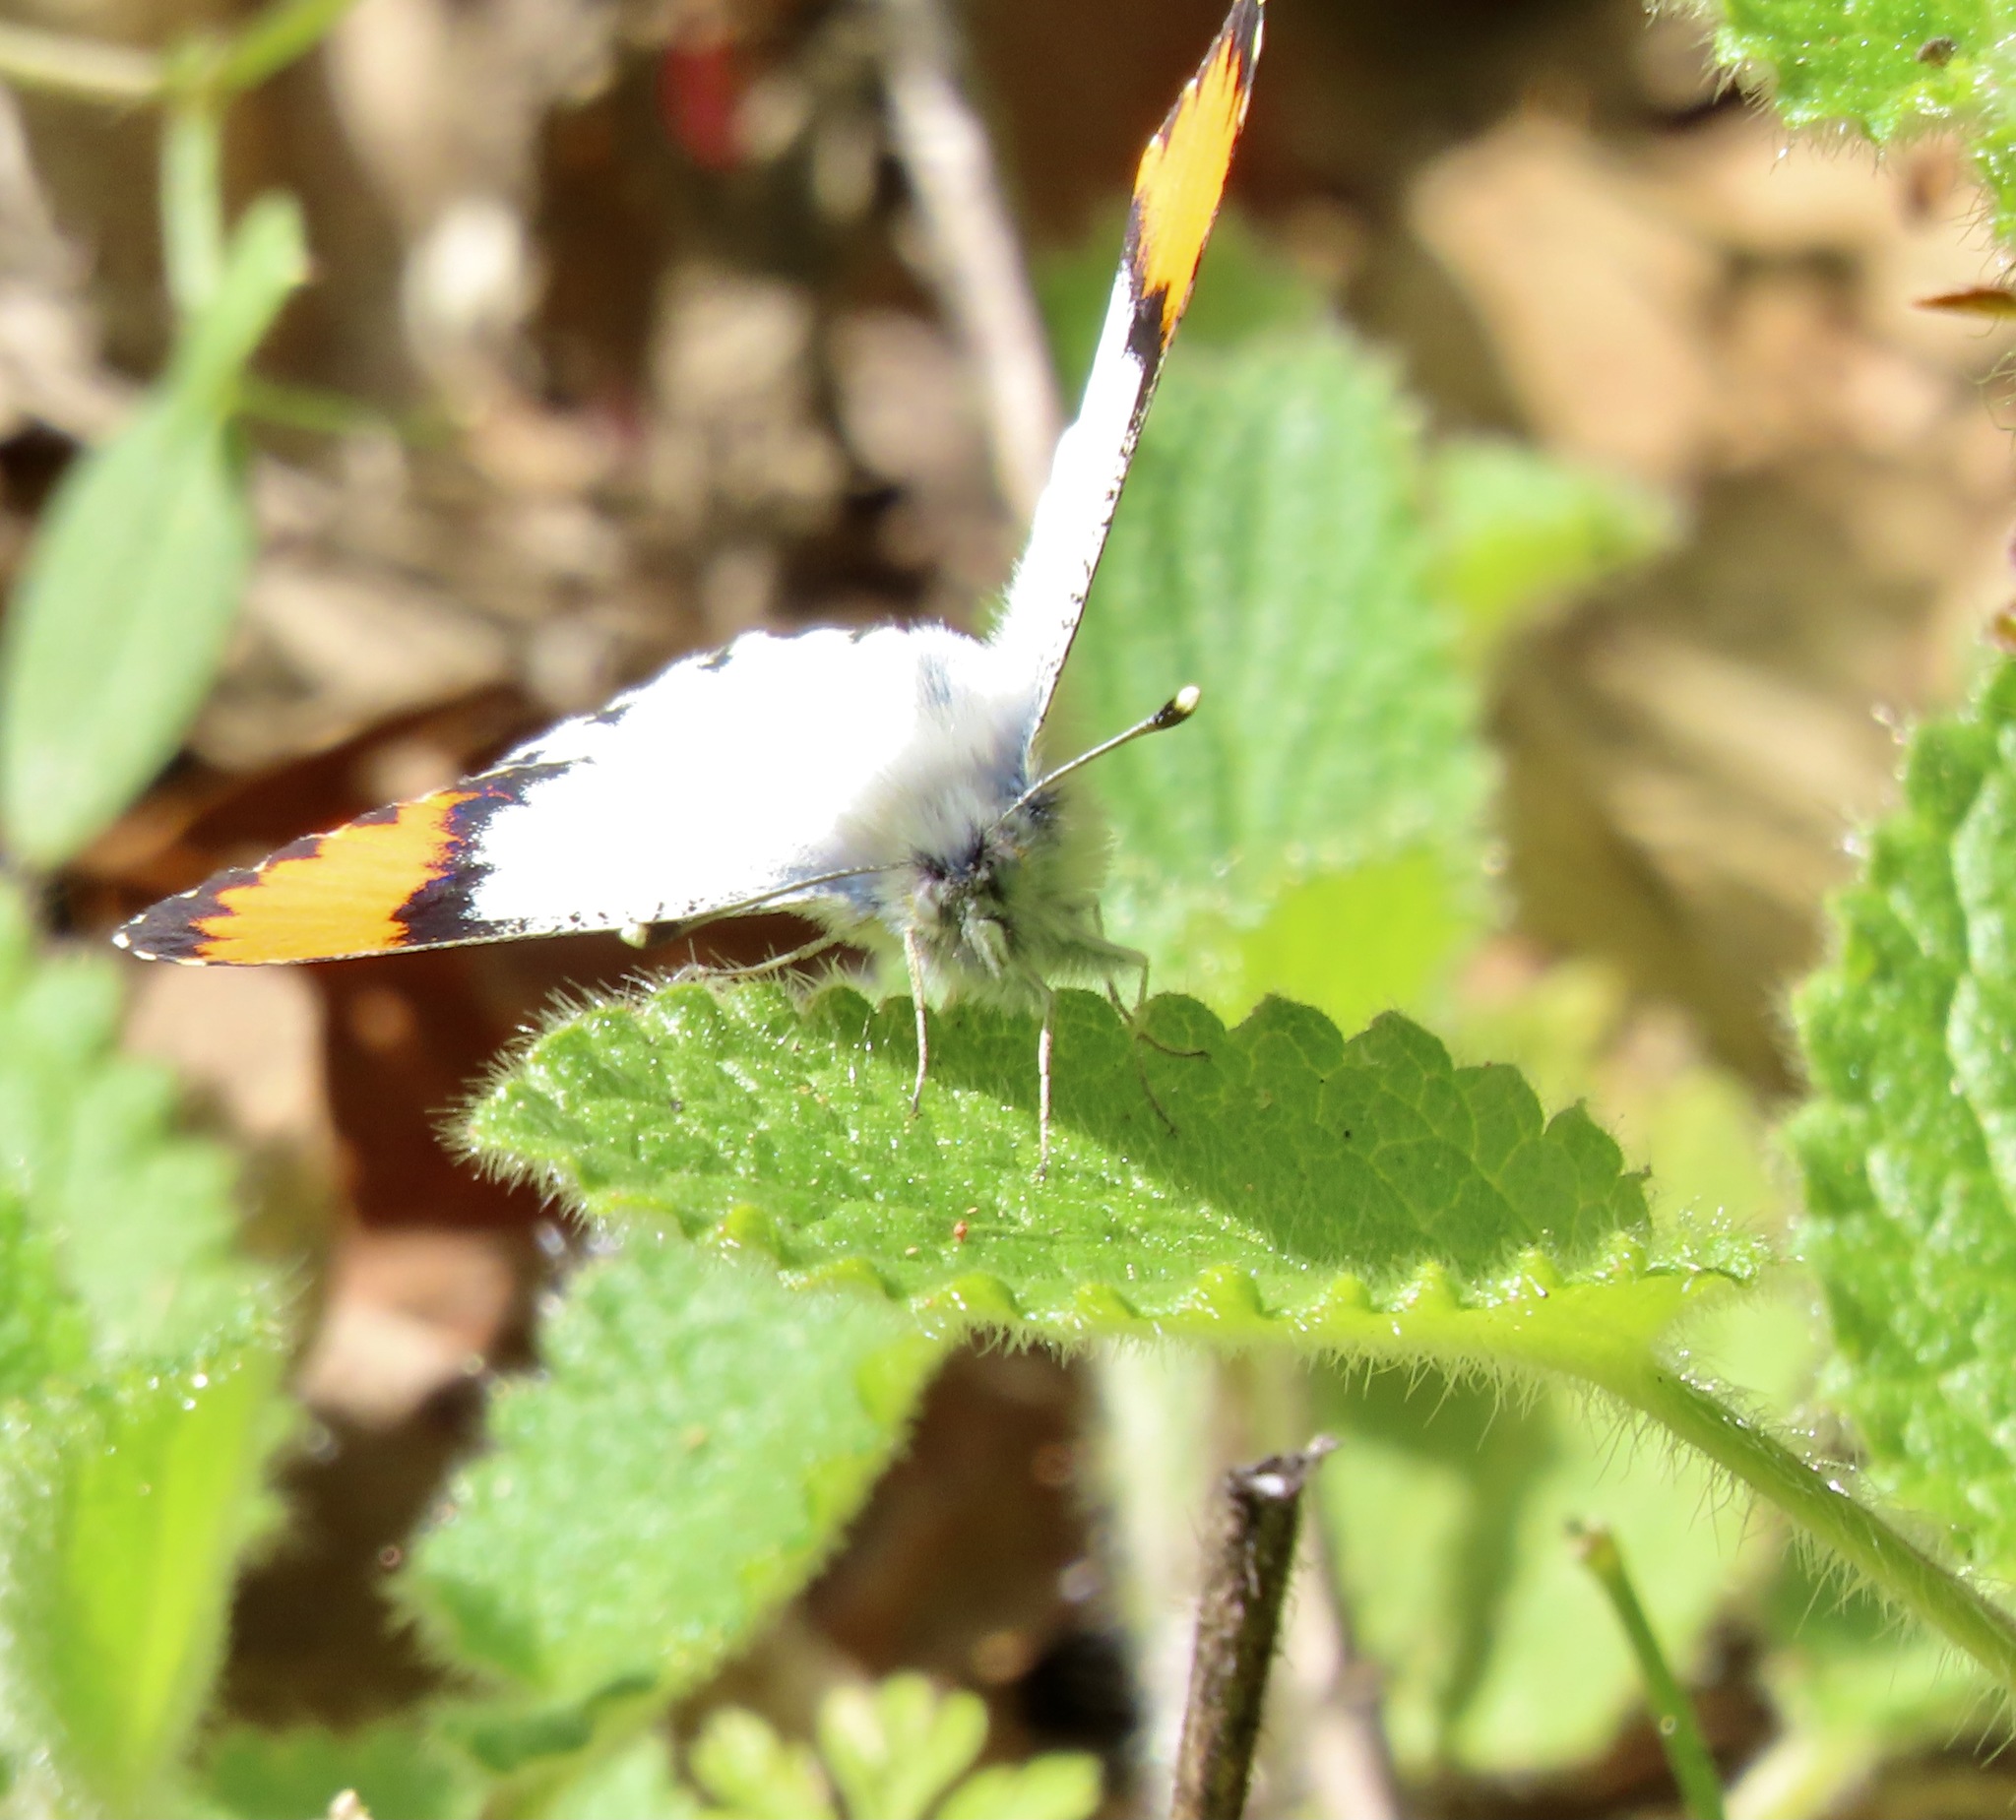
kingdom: Animalia
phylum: Arthropoda
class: Insecta
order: Lepidoptera
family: Pieridae
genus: Anthocharis
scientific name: Anthocharis sara
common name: Sara's orangetip
